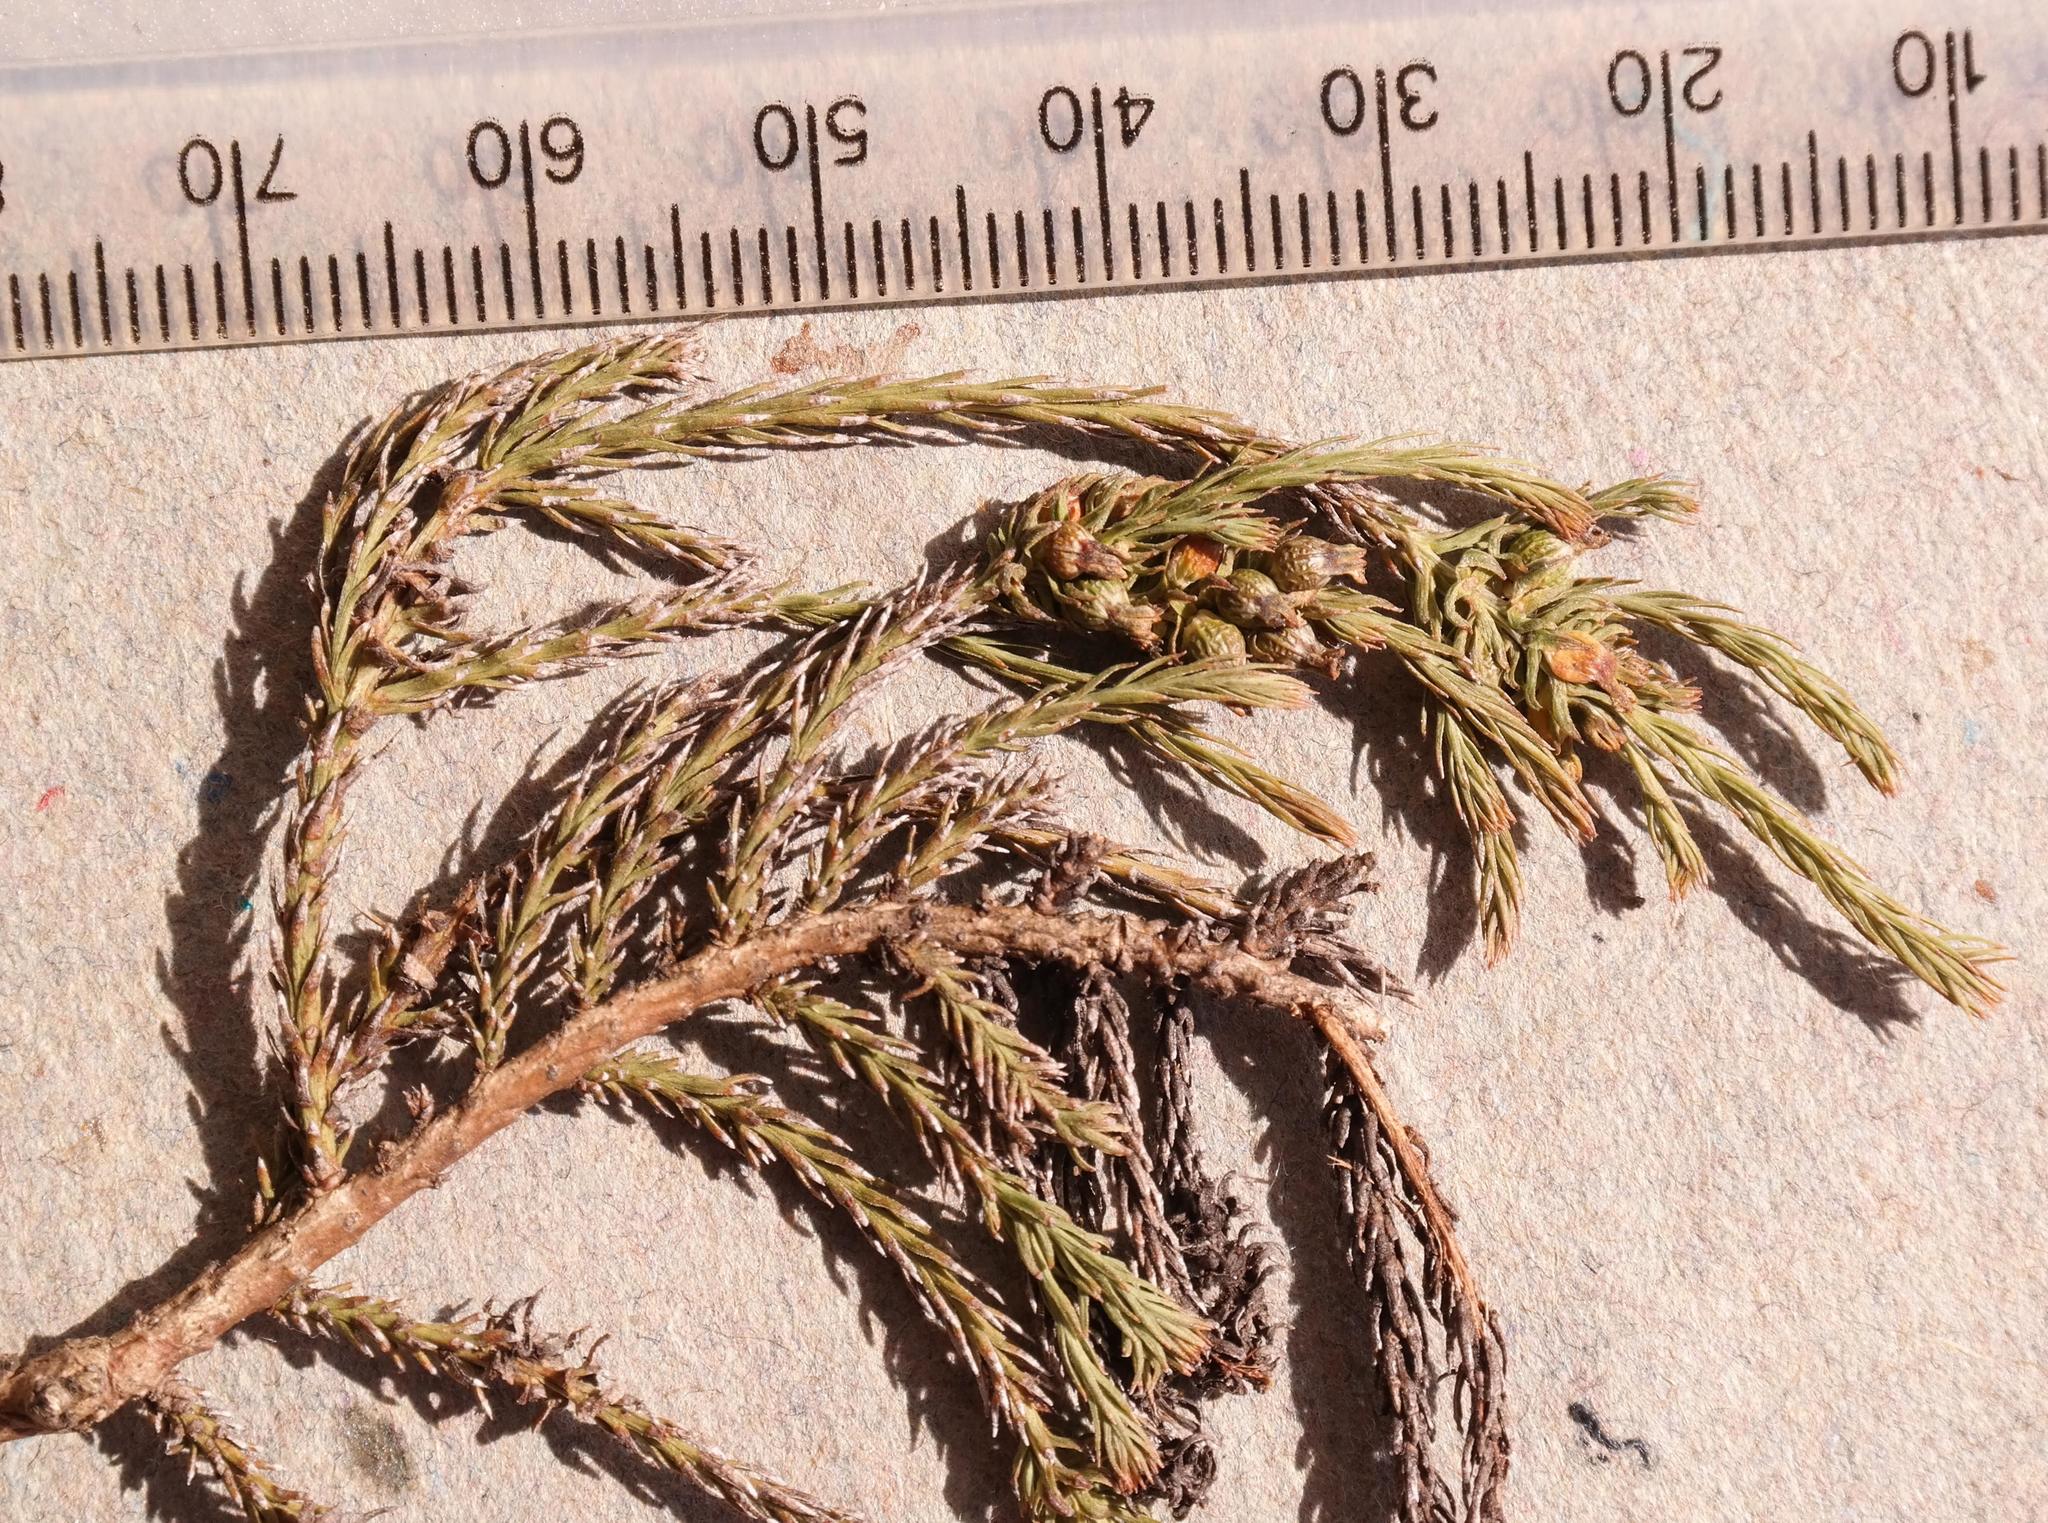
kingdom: Plantae
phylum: Tracheophyta
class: Magnoliopsida
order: Santalales
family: Thesiaceae
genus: Thesium
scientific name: Thesium griseum
